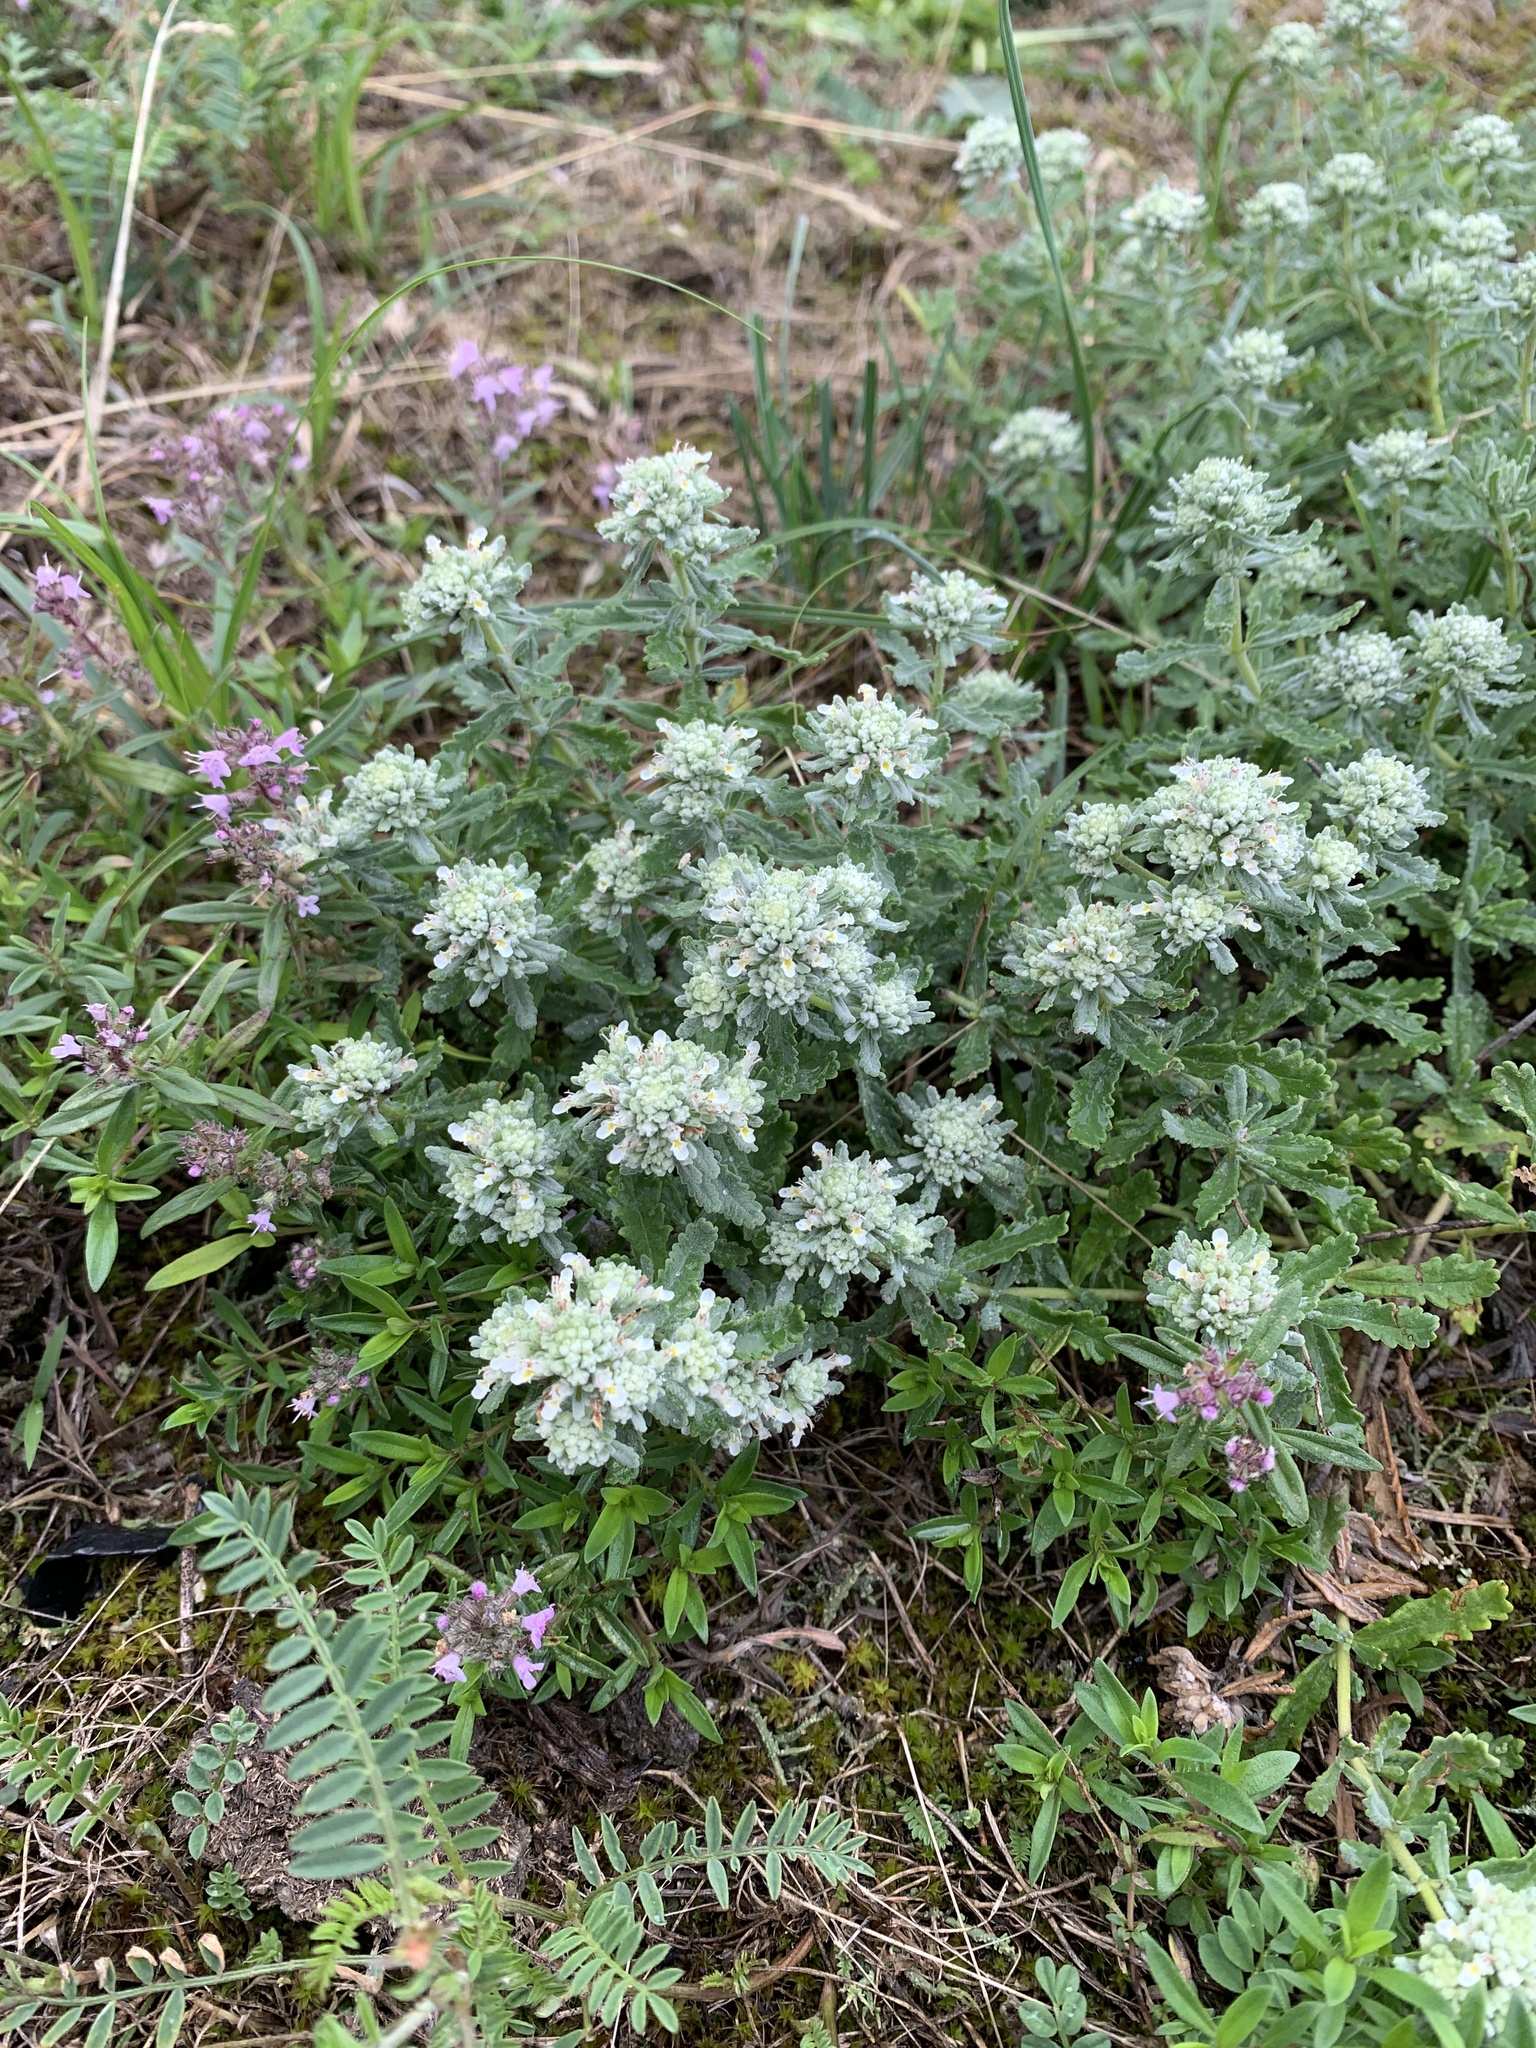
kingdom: Plantae
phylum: Tracheophyta
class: Magnoliopsida
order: Lamiales
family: Lamiaceae
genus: Teucrium
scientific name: Teucrium polium
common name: Poley
